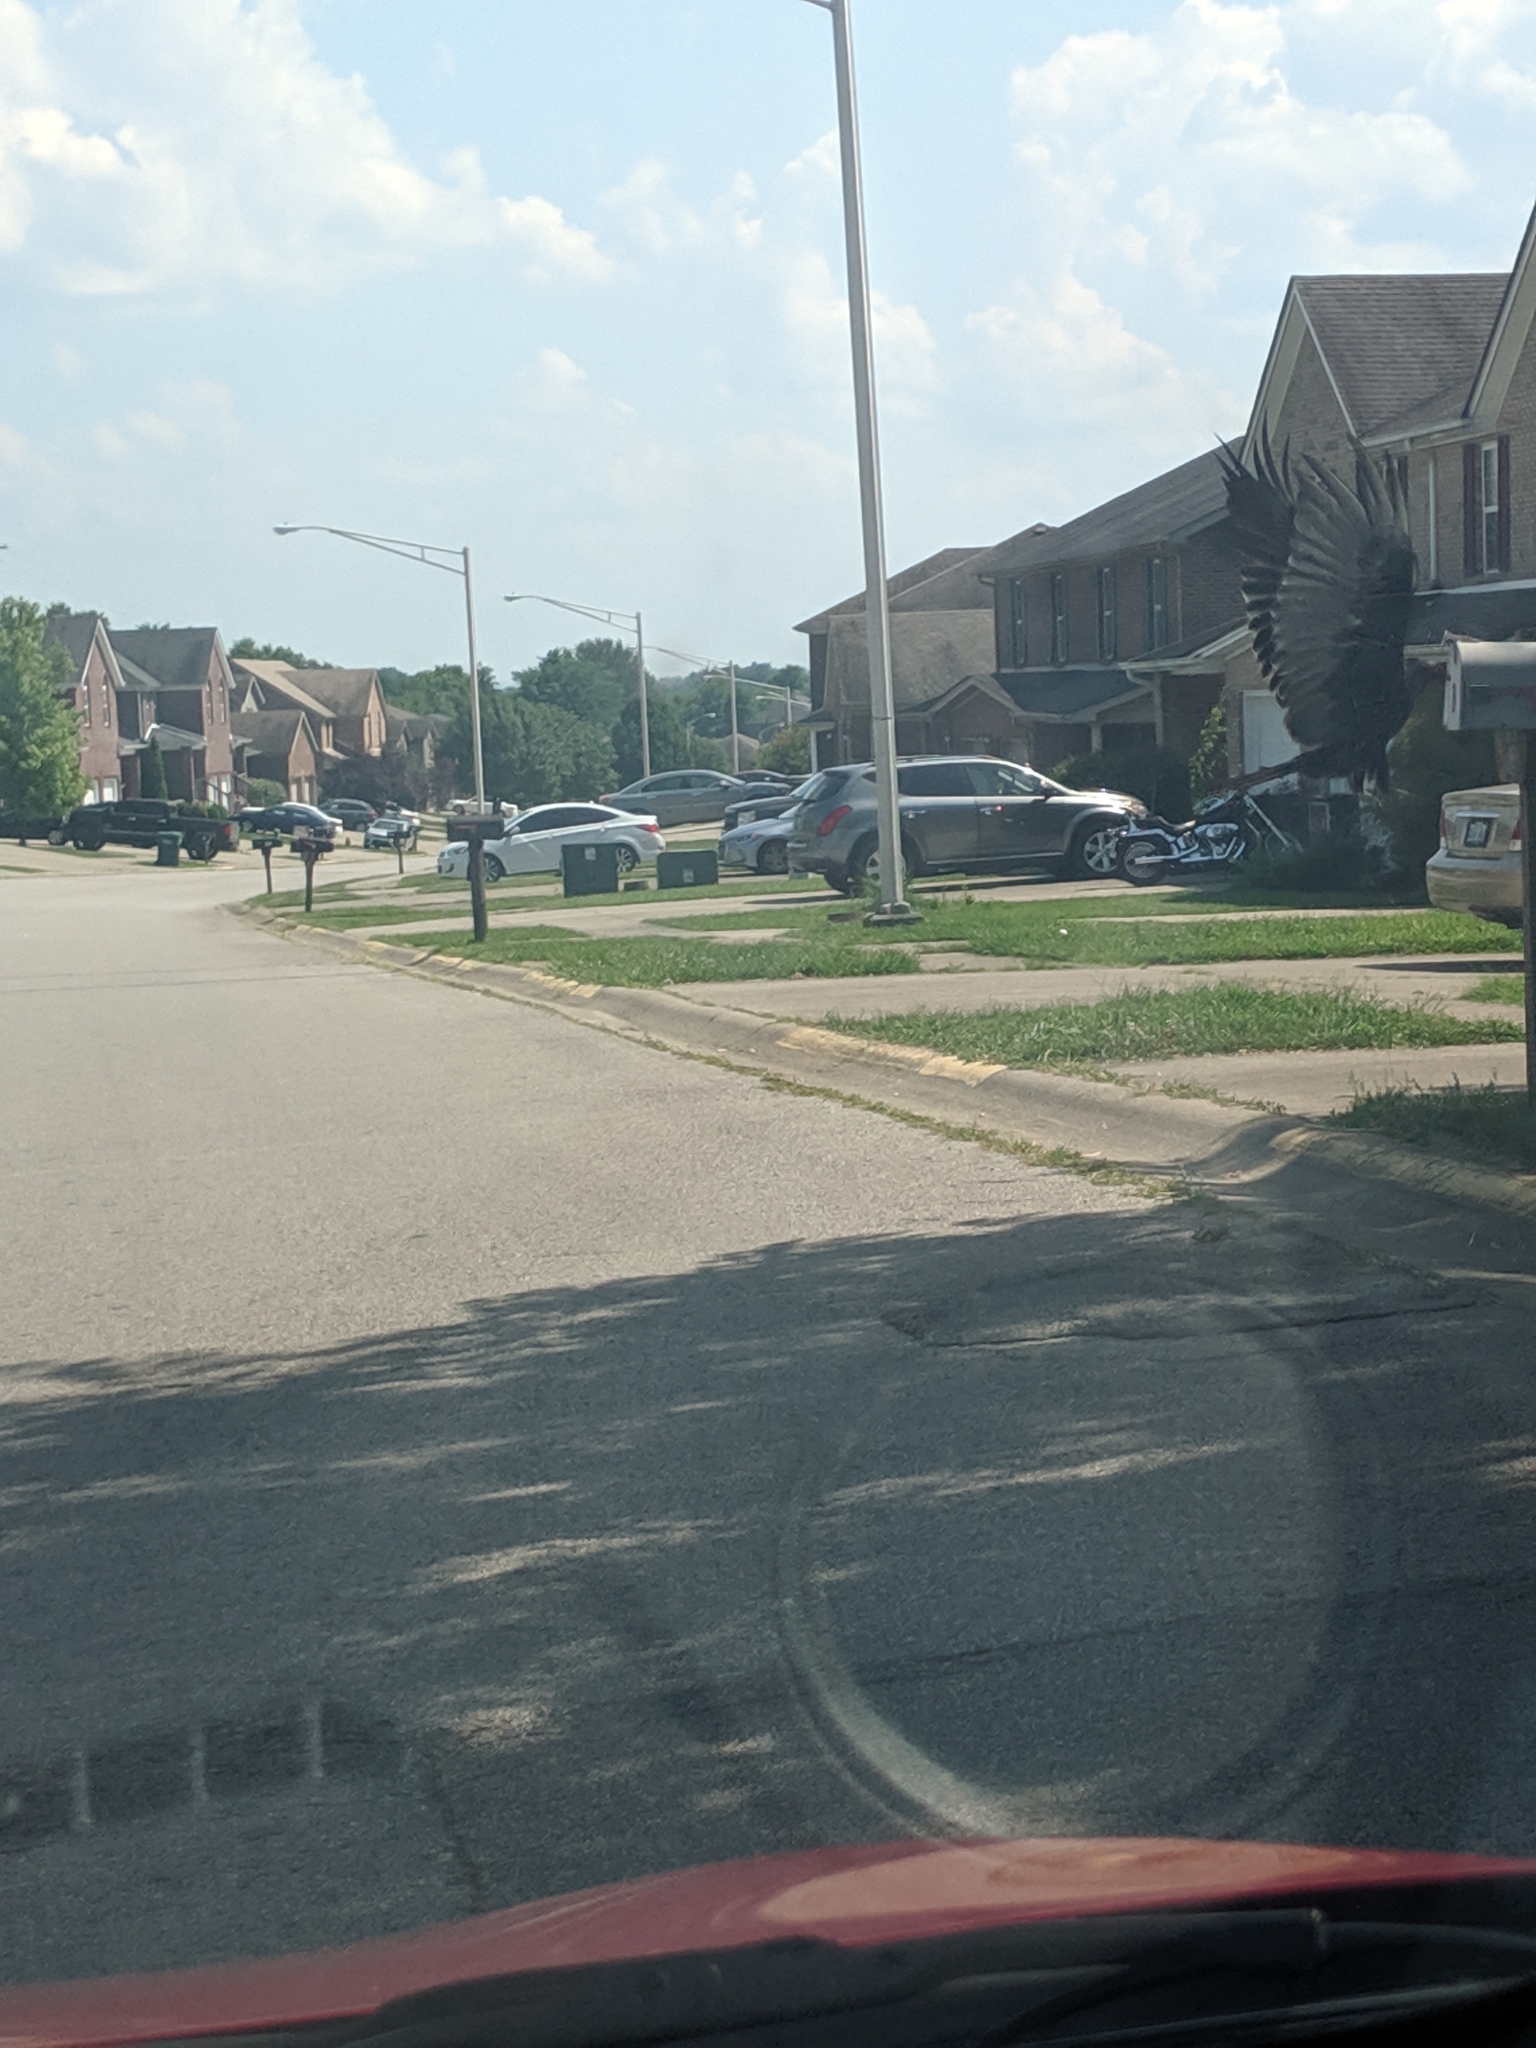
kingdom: Animalia
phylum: Chordata
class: Aves
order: Accipitriformes
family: Cathartidae
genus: Cathartes
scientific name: Cathartes aura
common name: Turkey vulture
